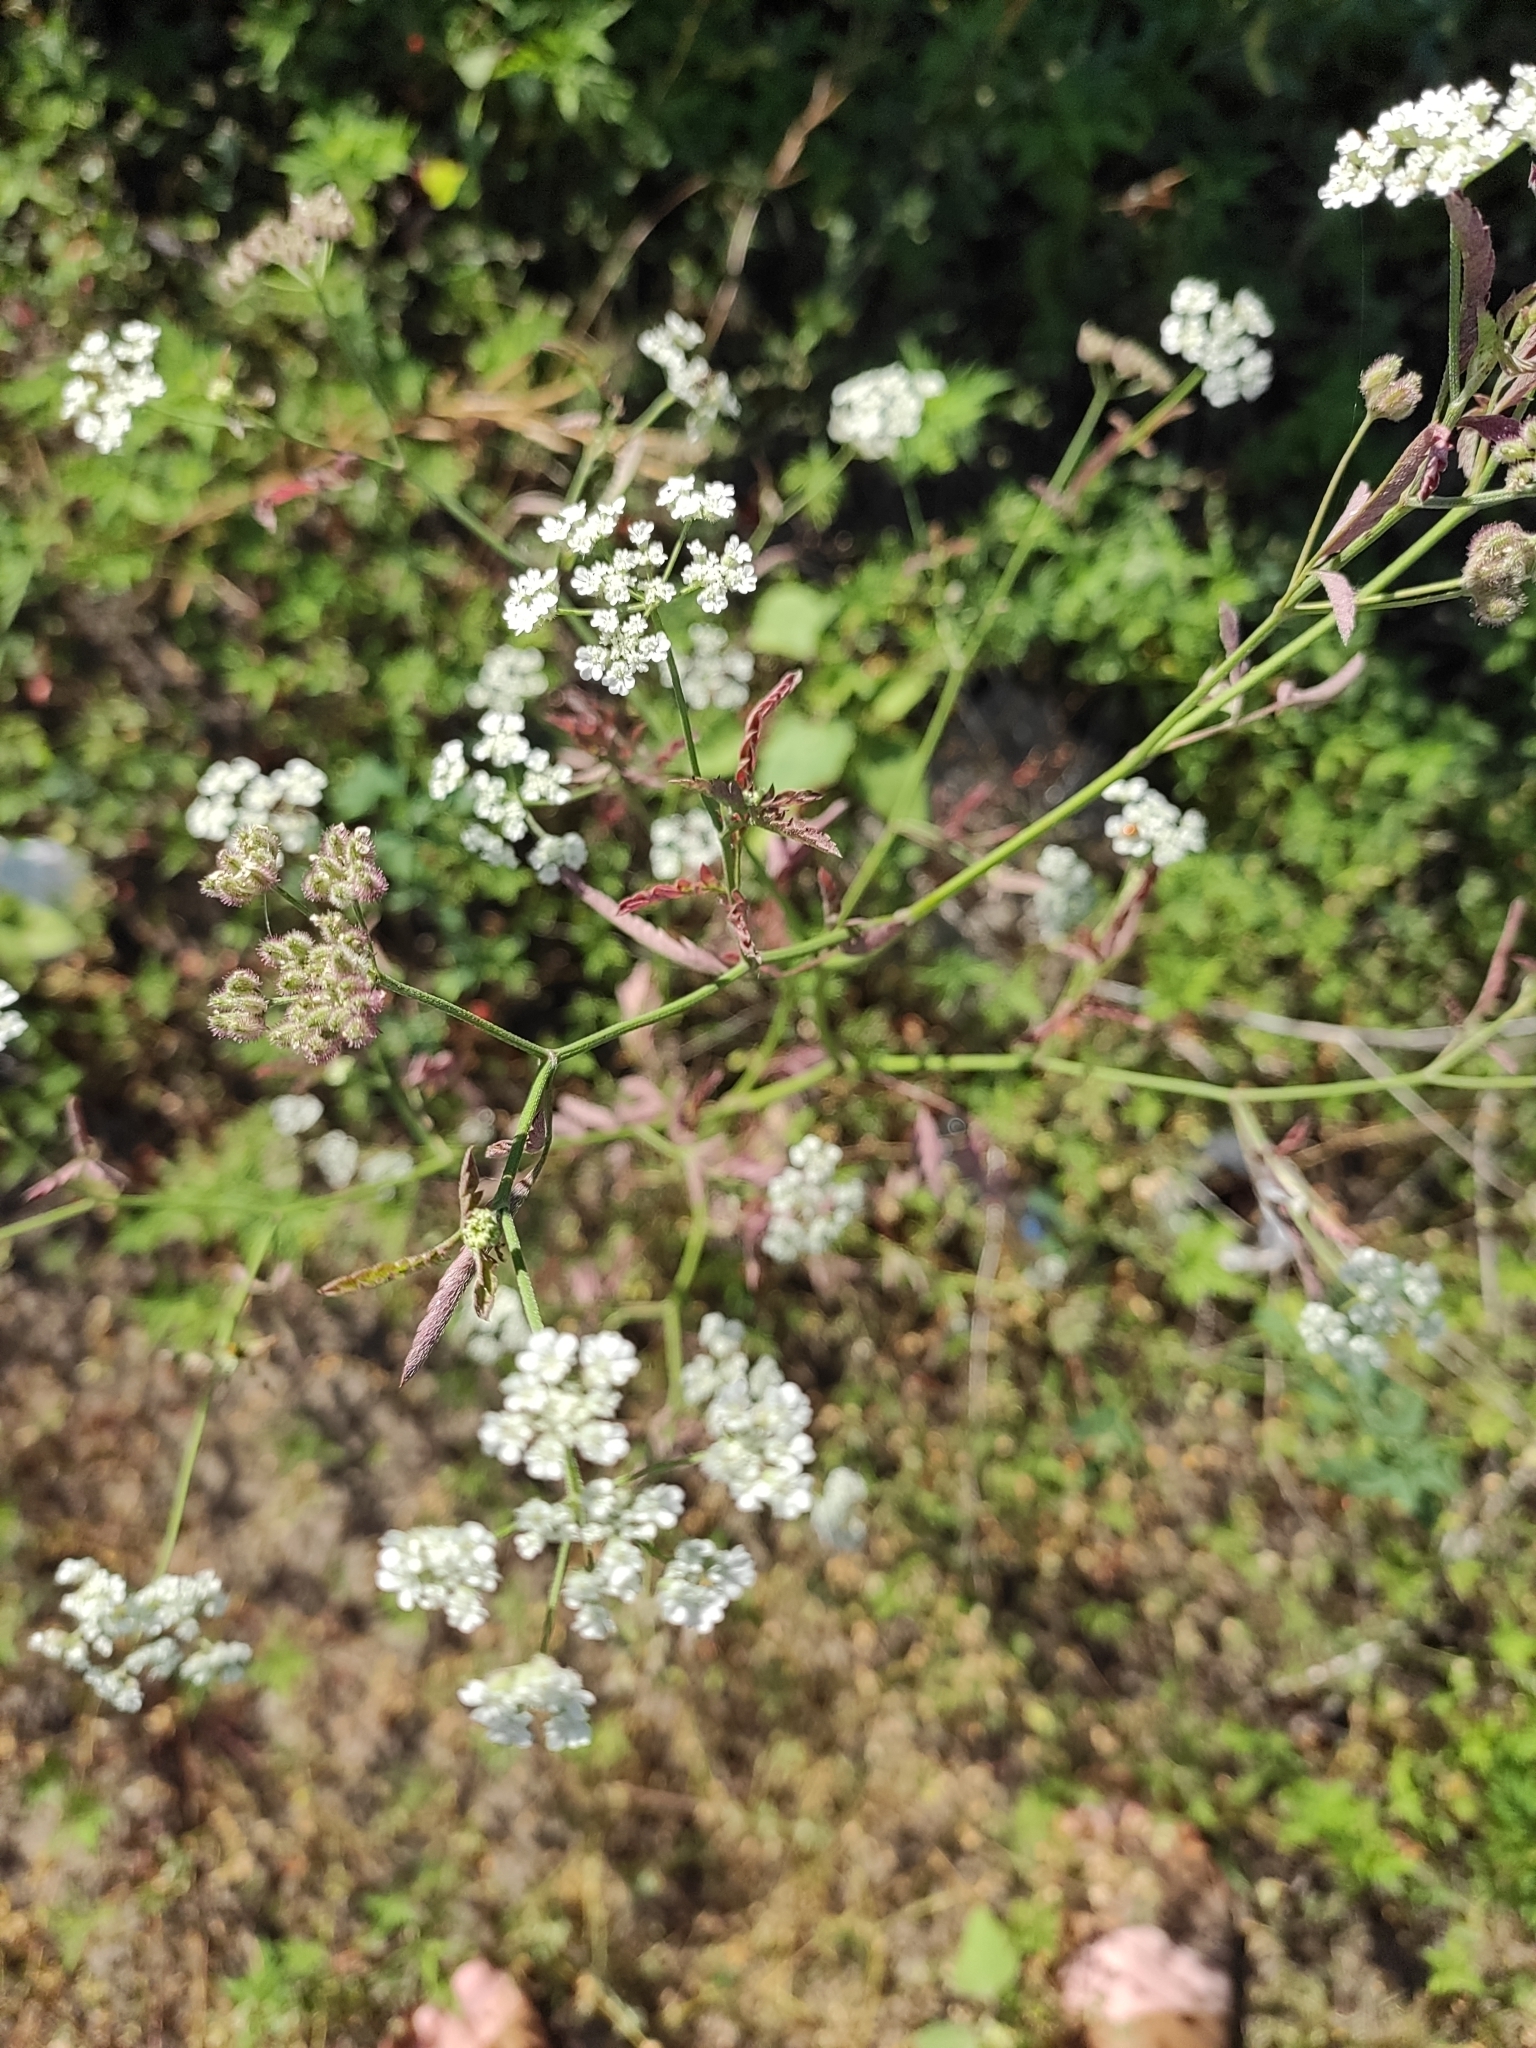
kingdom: Plantae
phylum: Tracheophyta
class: Magnoliopsida
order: Apiales
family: Apiaceae
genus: Torilis
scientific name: Torilis arvensis
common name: Spreading hedge-parsley
